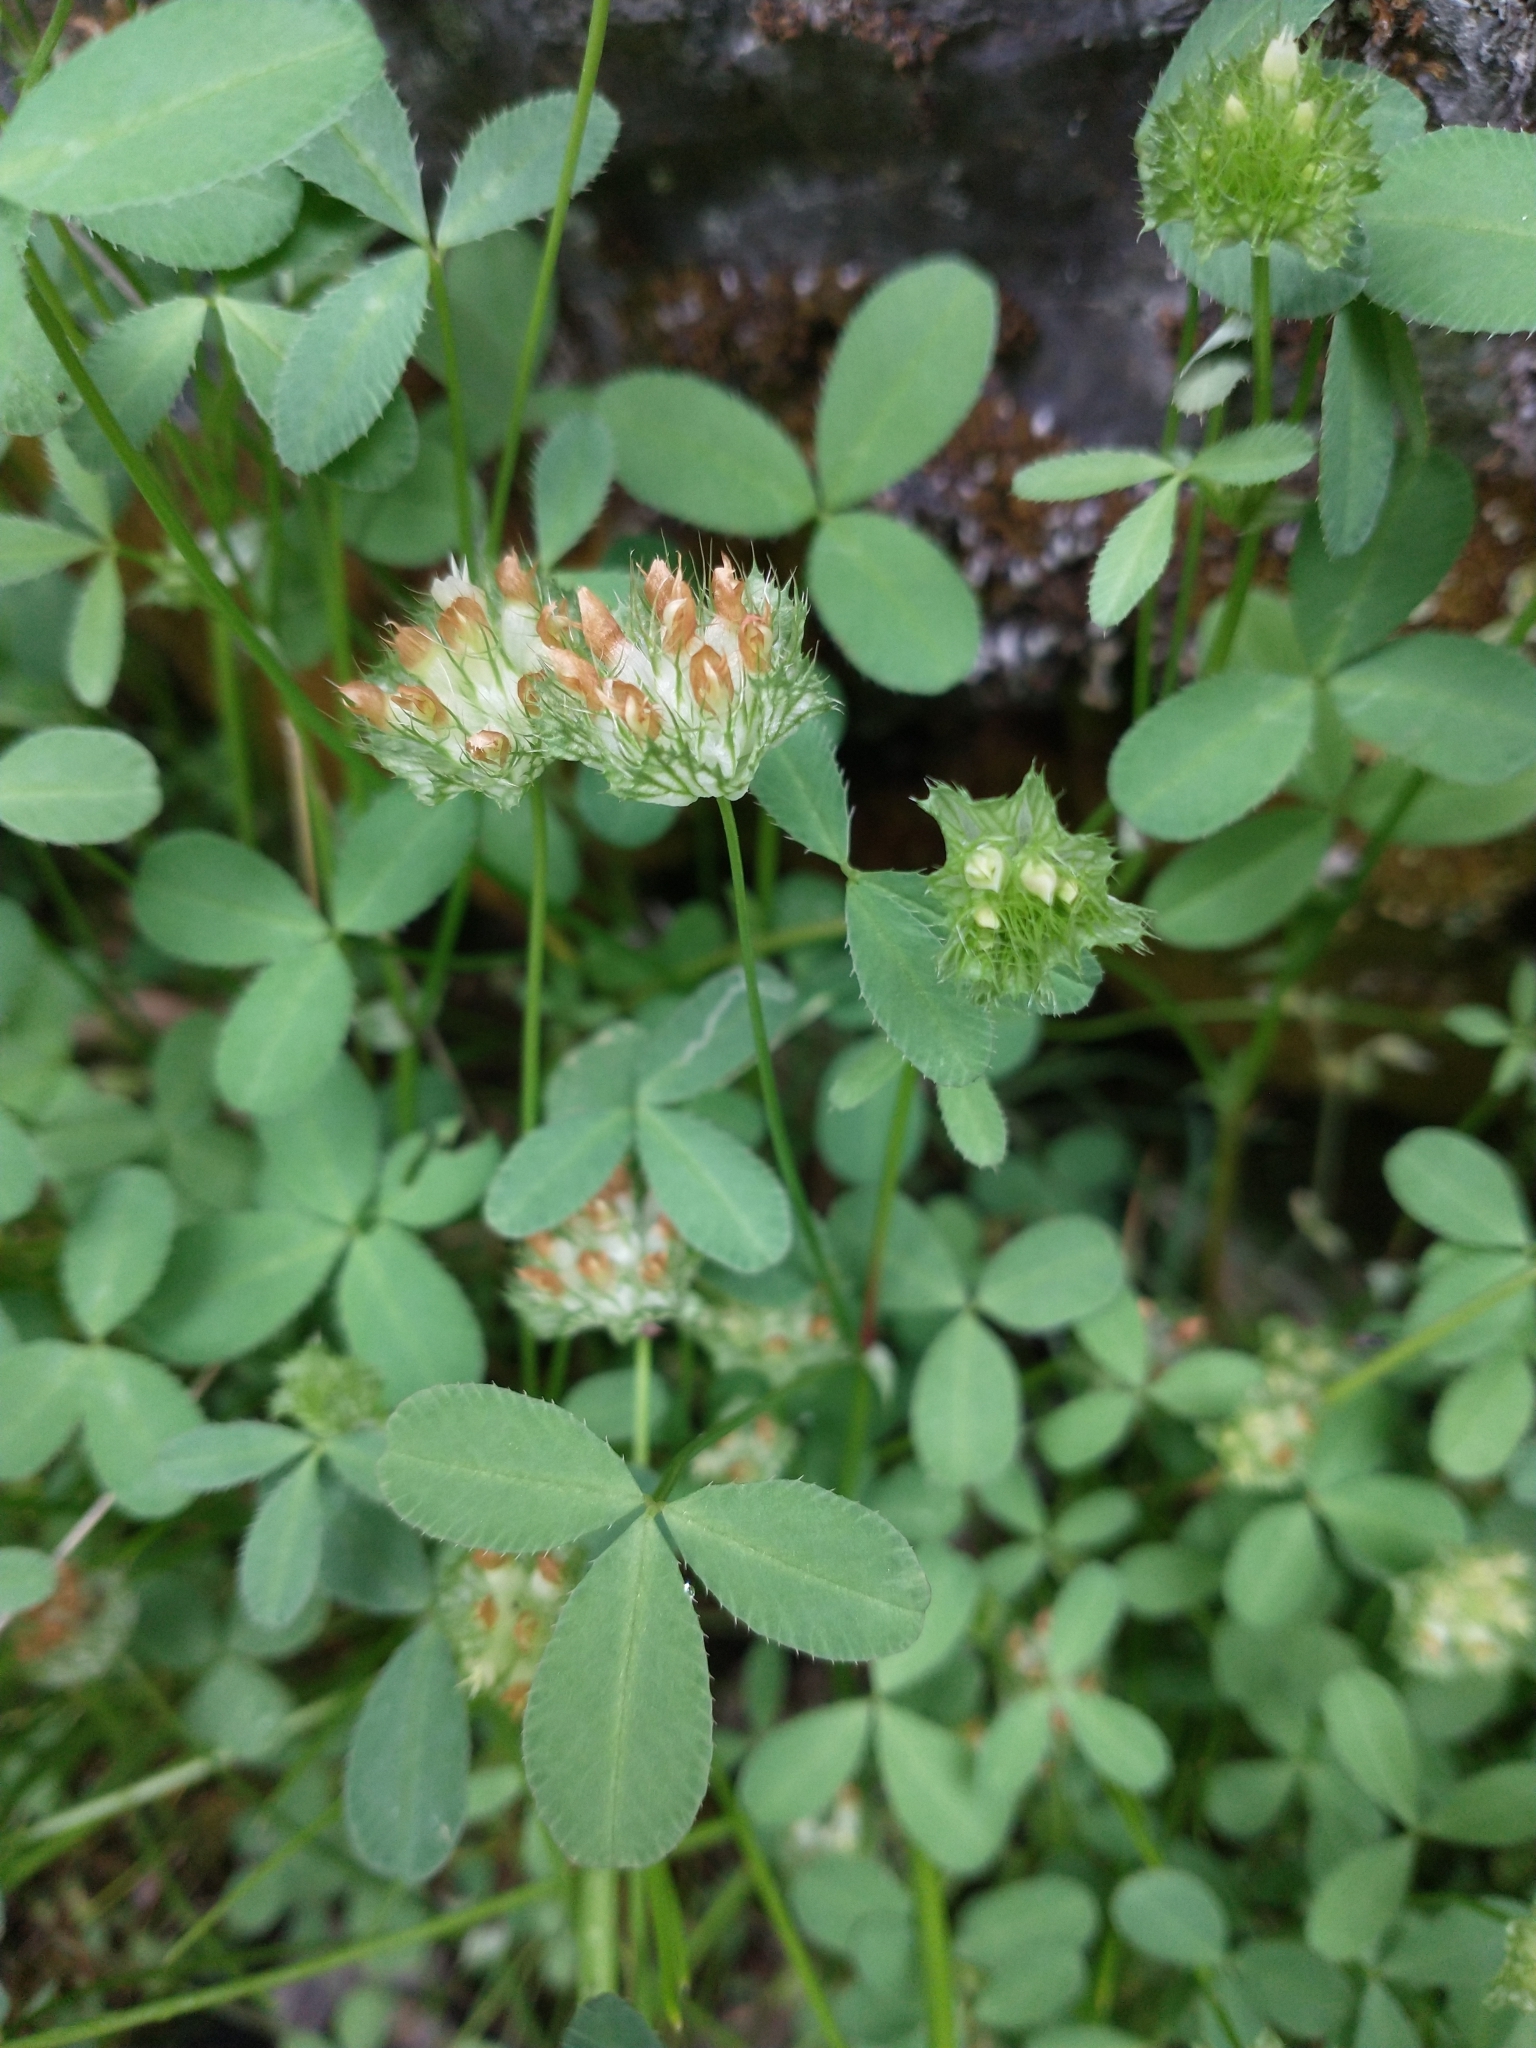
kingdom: Plantae
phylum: Tracheophyta
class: Magnoliopsida
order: Fabales
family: Fabaceae
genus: Trifolium
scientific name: Trifolium cyathiferum
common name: Bowl clover
